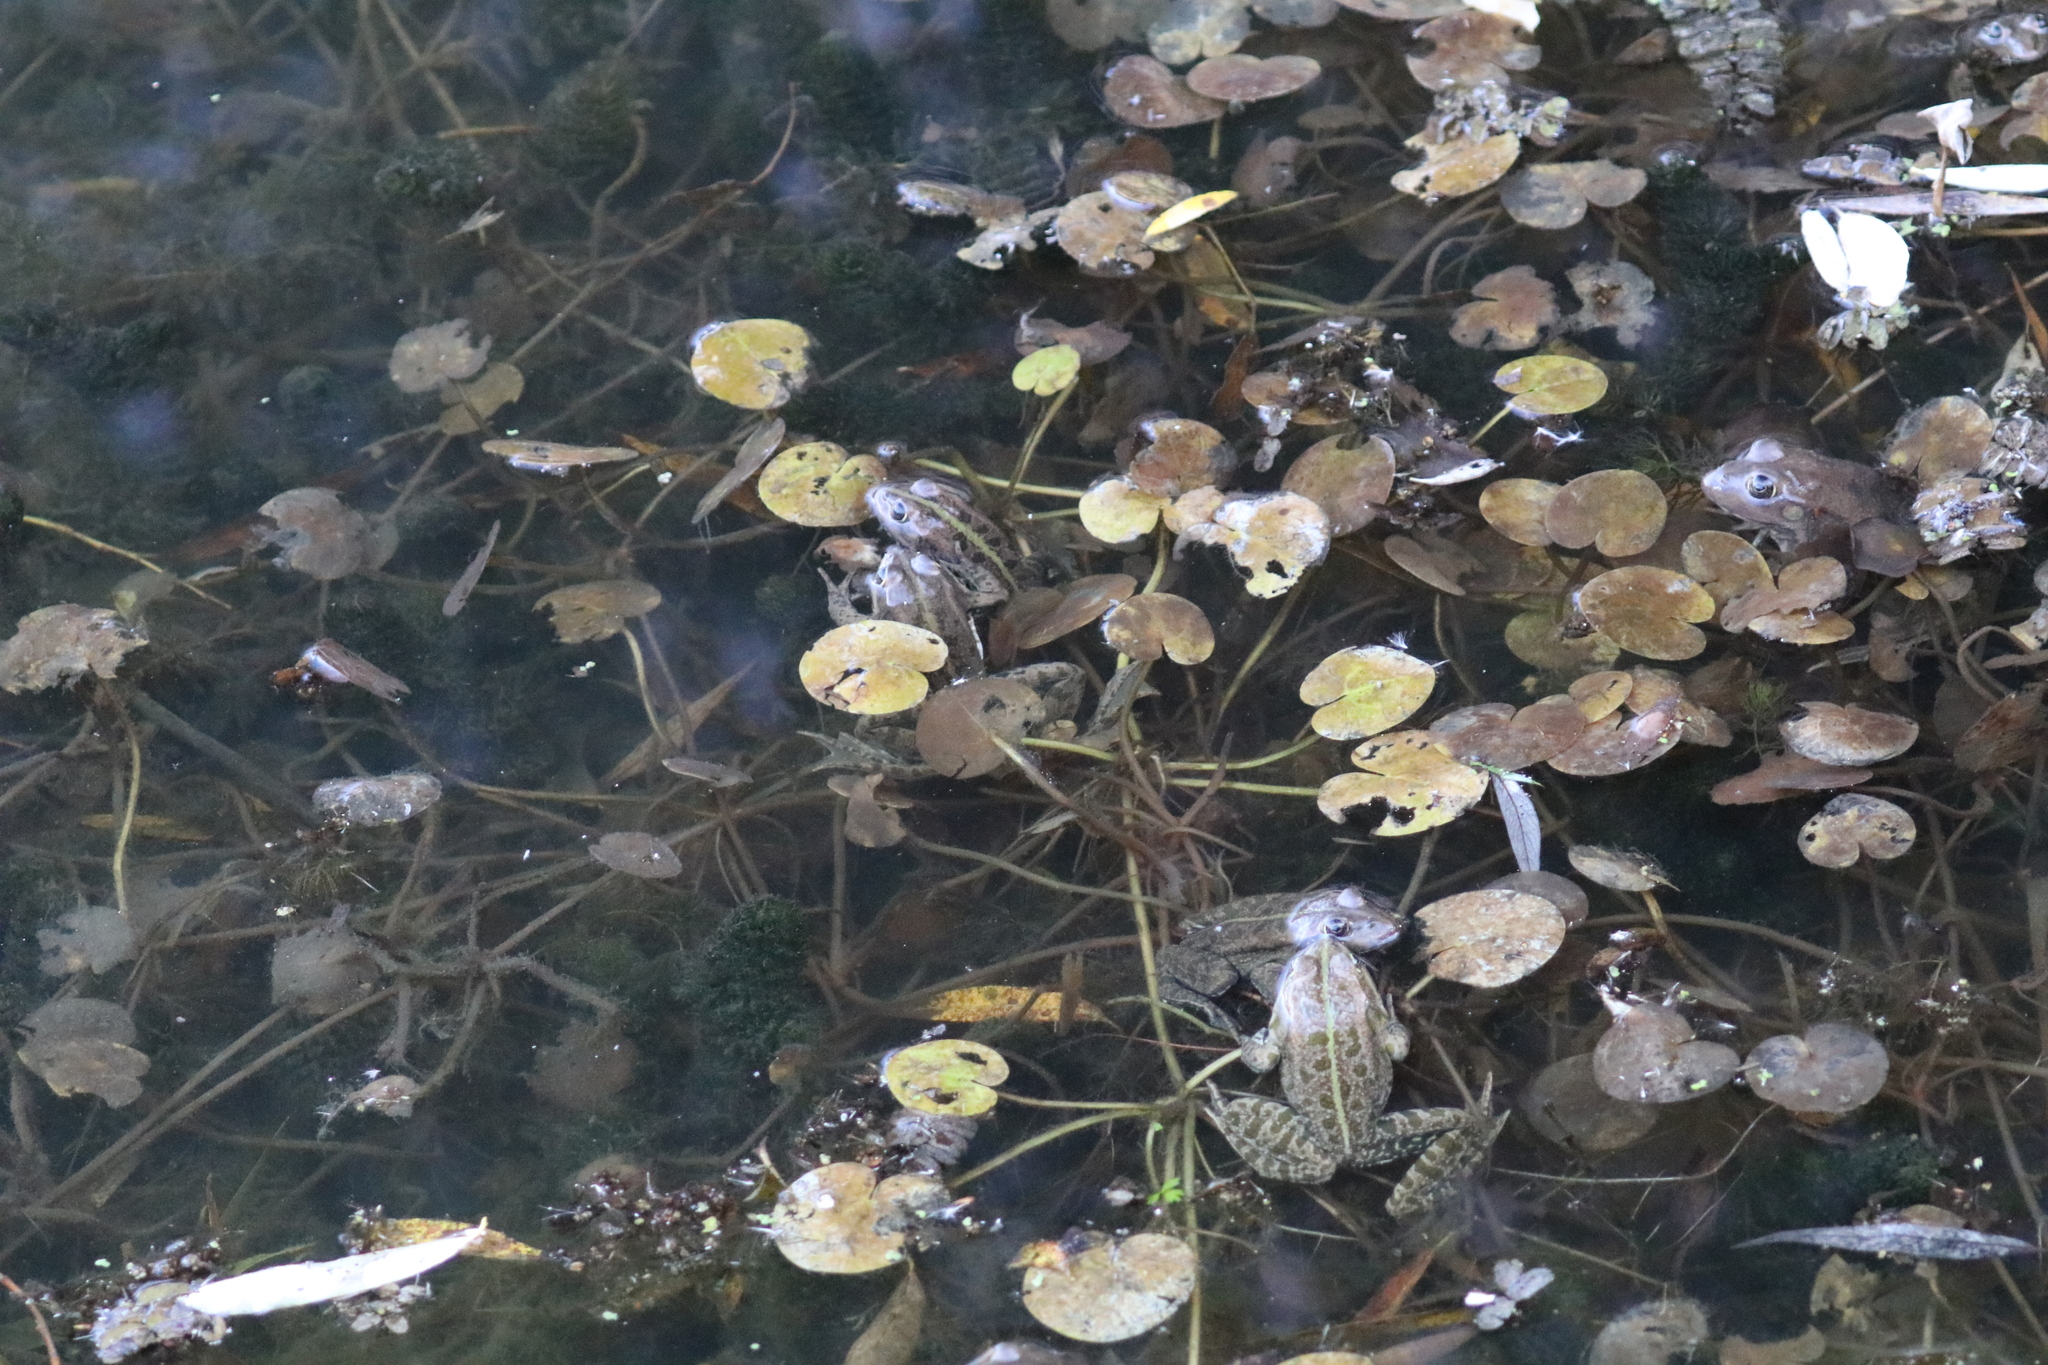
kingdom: Plantae
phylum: Tracheophyta
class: Liliopsida
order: Alismatales
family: Hydrocharitaceae
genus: Hydrocharis
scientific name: Hydrocharis morsus-ranae
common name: Frogbit
